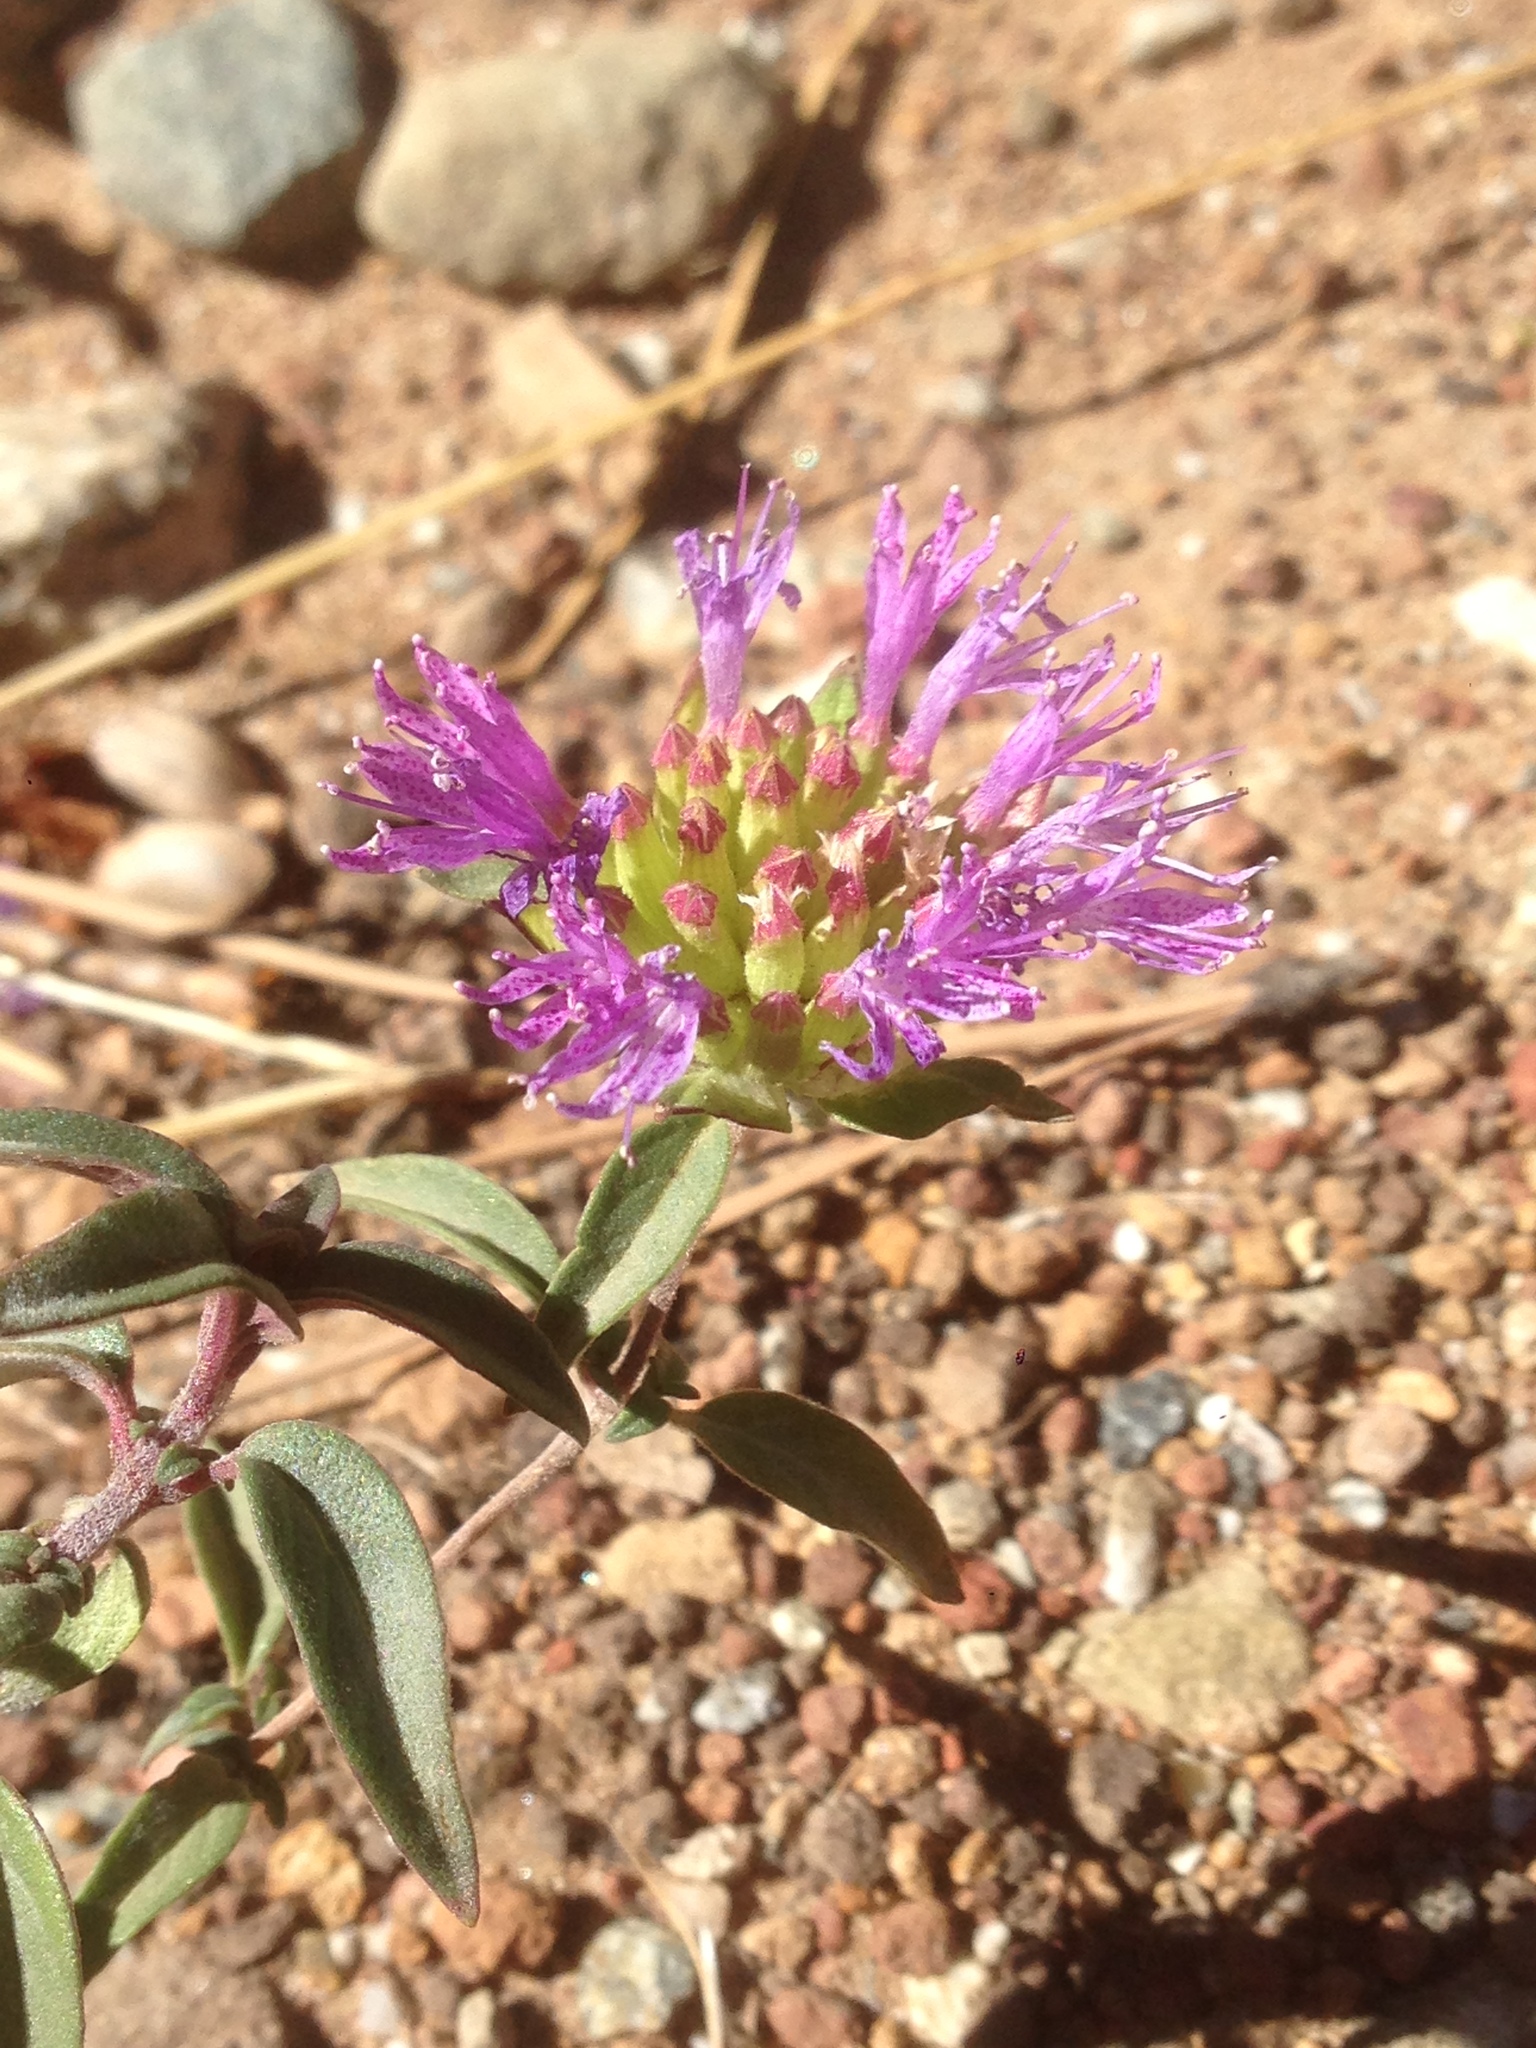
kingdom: Plantae
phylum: Tracheophyta
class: Magnoliopsida
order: Lamiales
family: Lamiaceae
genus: Monardella
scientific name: Monardella breweri
